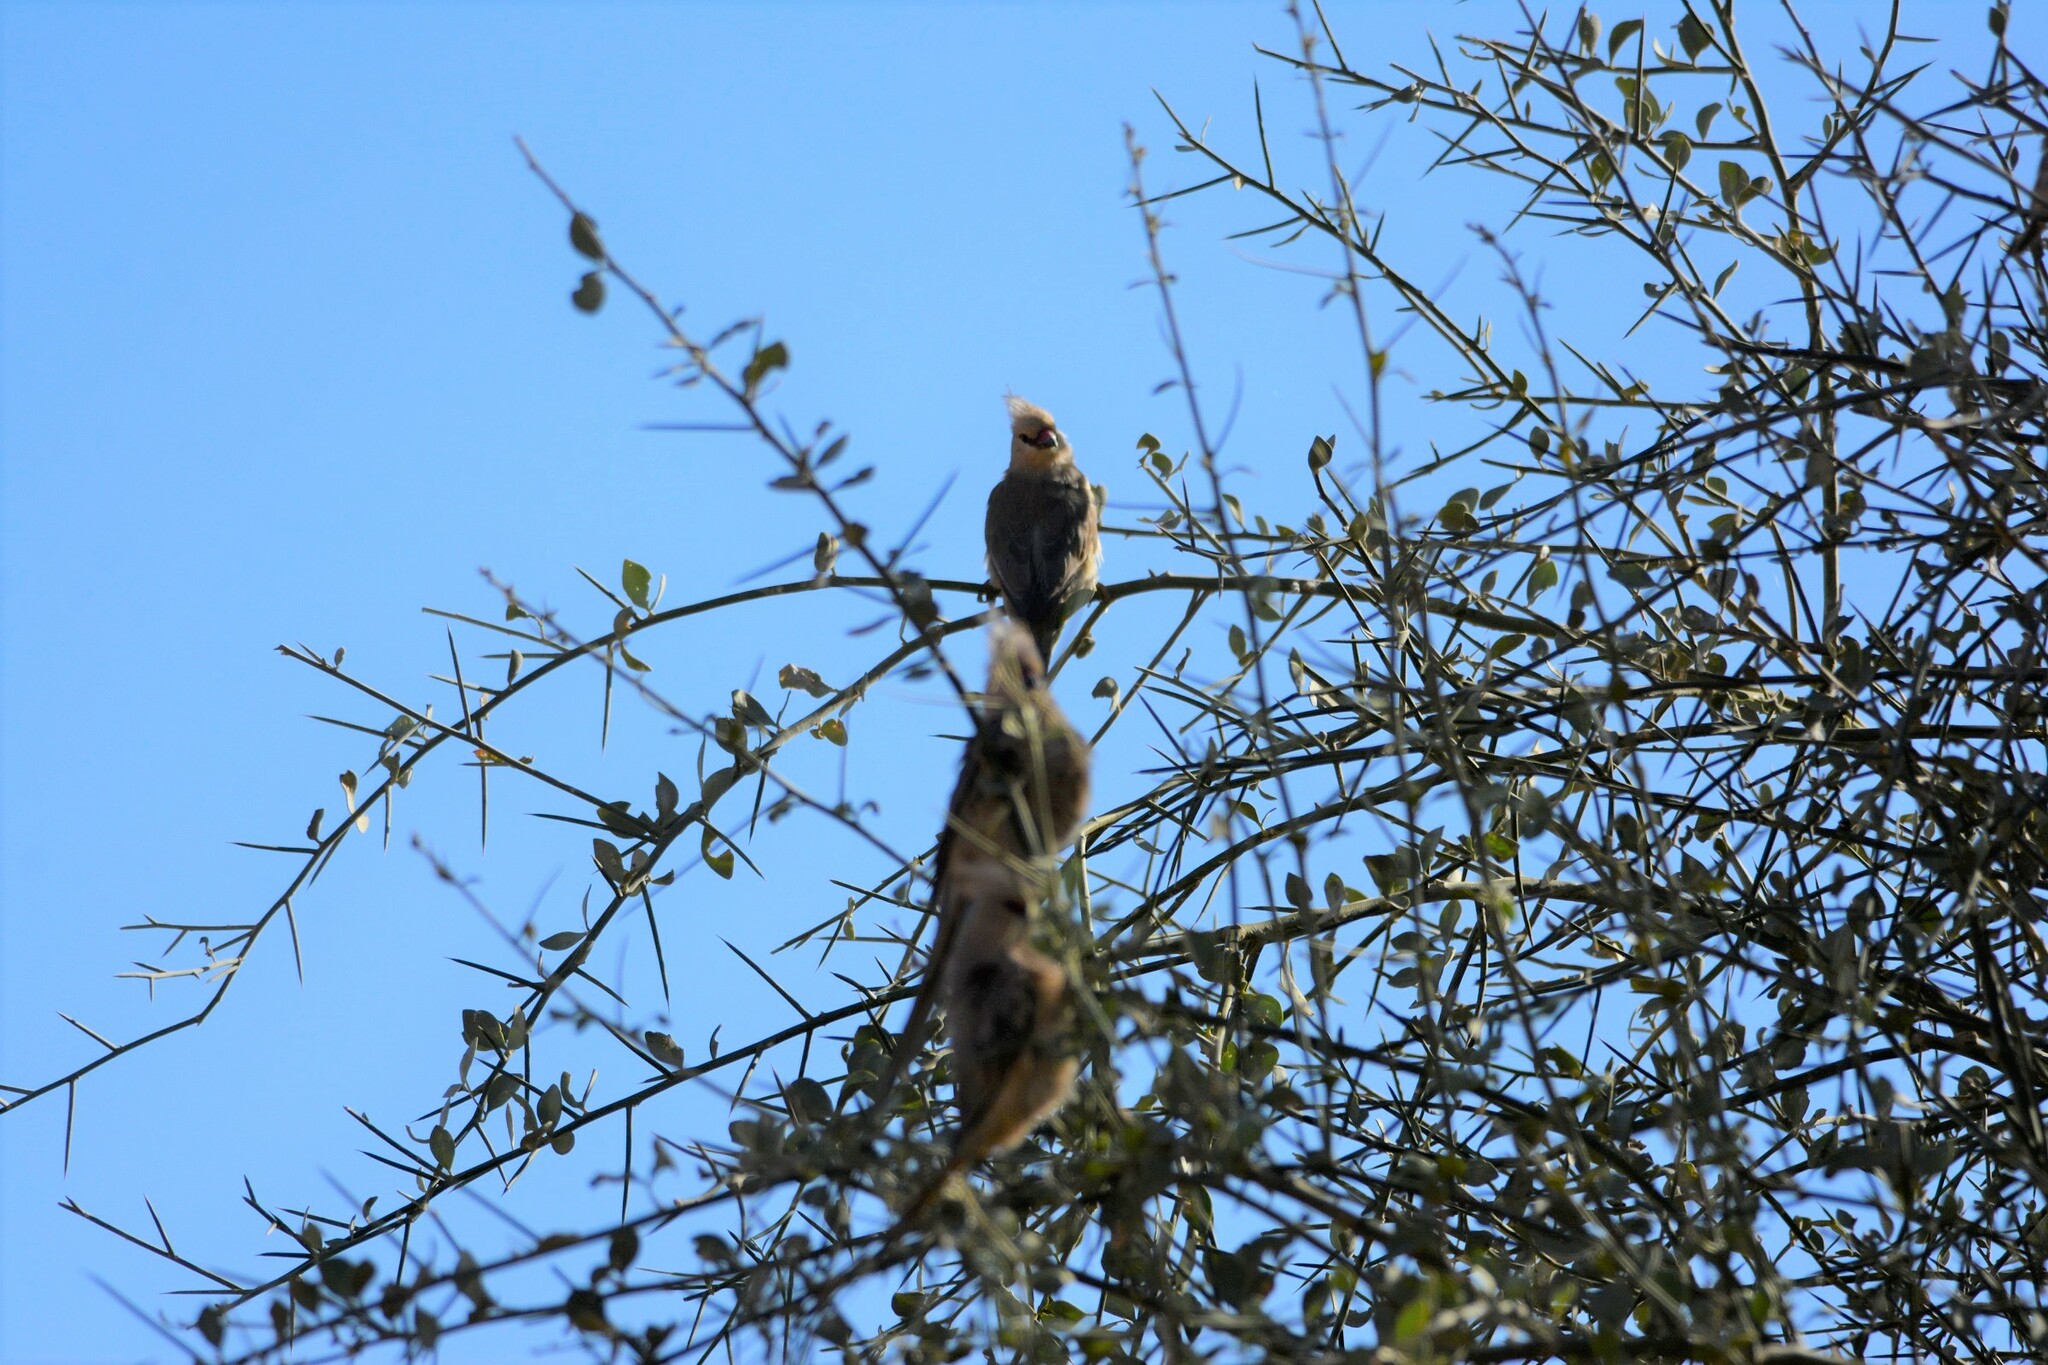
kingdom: Animalia
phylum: Chordata
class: Aves
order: Coliiformes
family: Coliidae
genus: Urocolius
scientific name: Urocolius macrourus
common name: Blue-naped mousebird
